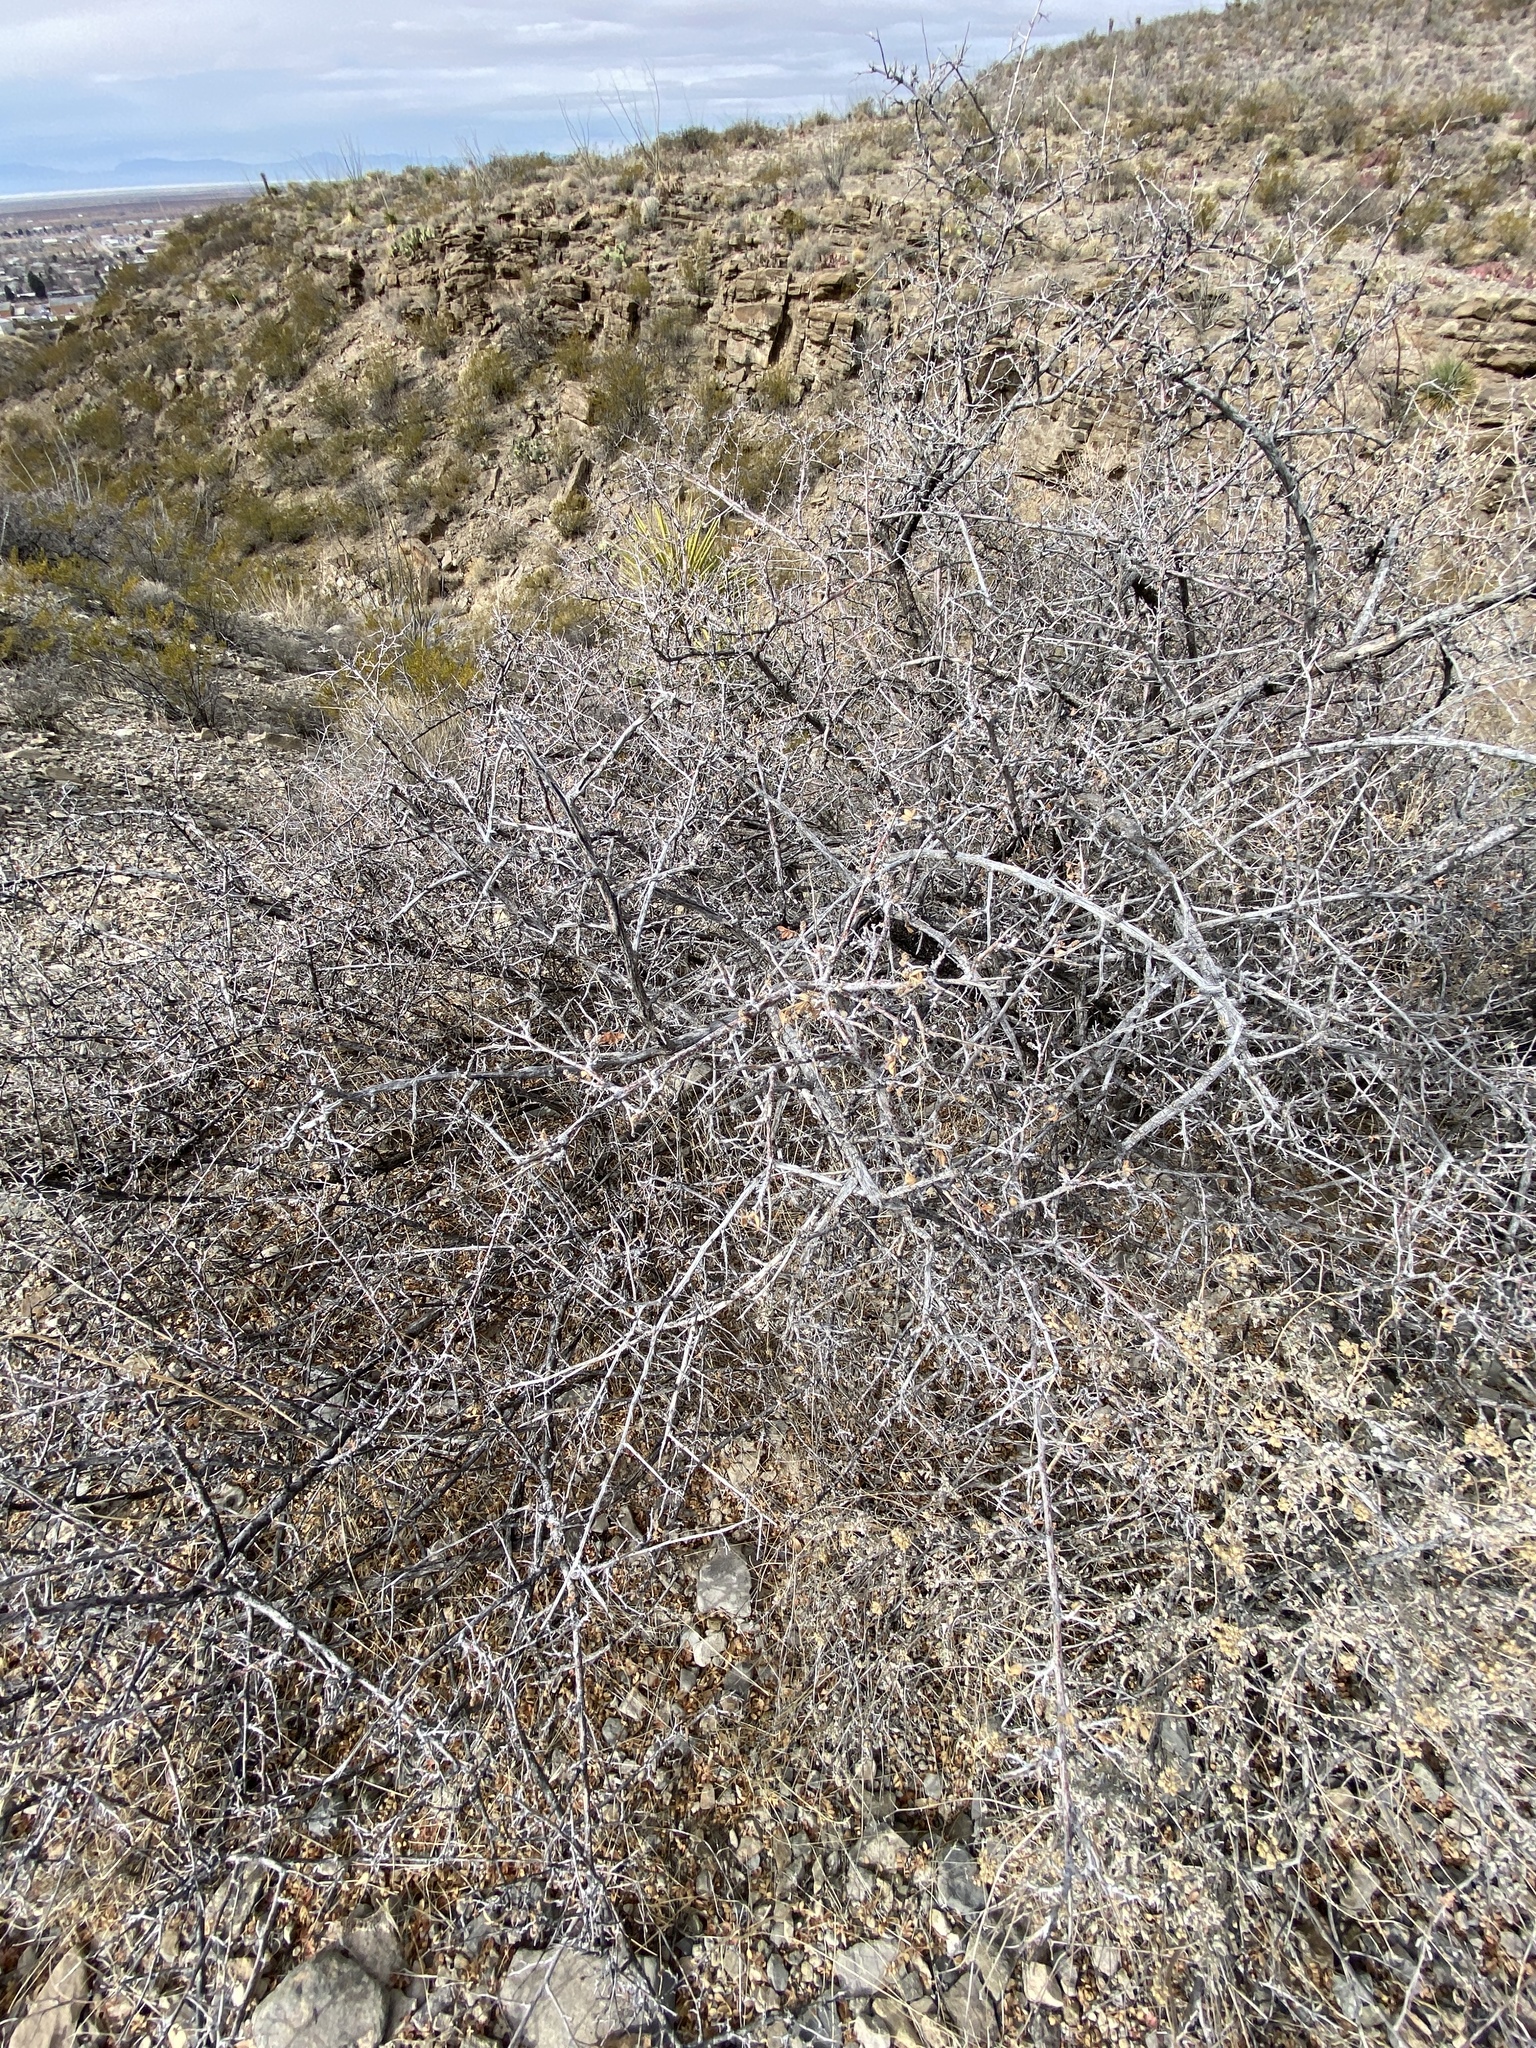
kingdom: Plantae
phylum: Tracheophyta
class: Magnoliopsida
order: Sapindales
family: Anacardiaceae
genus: Rhus
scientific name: Rhus microphylla
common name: Desert sumac
